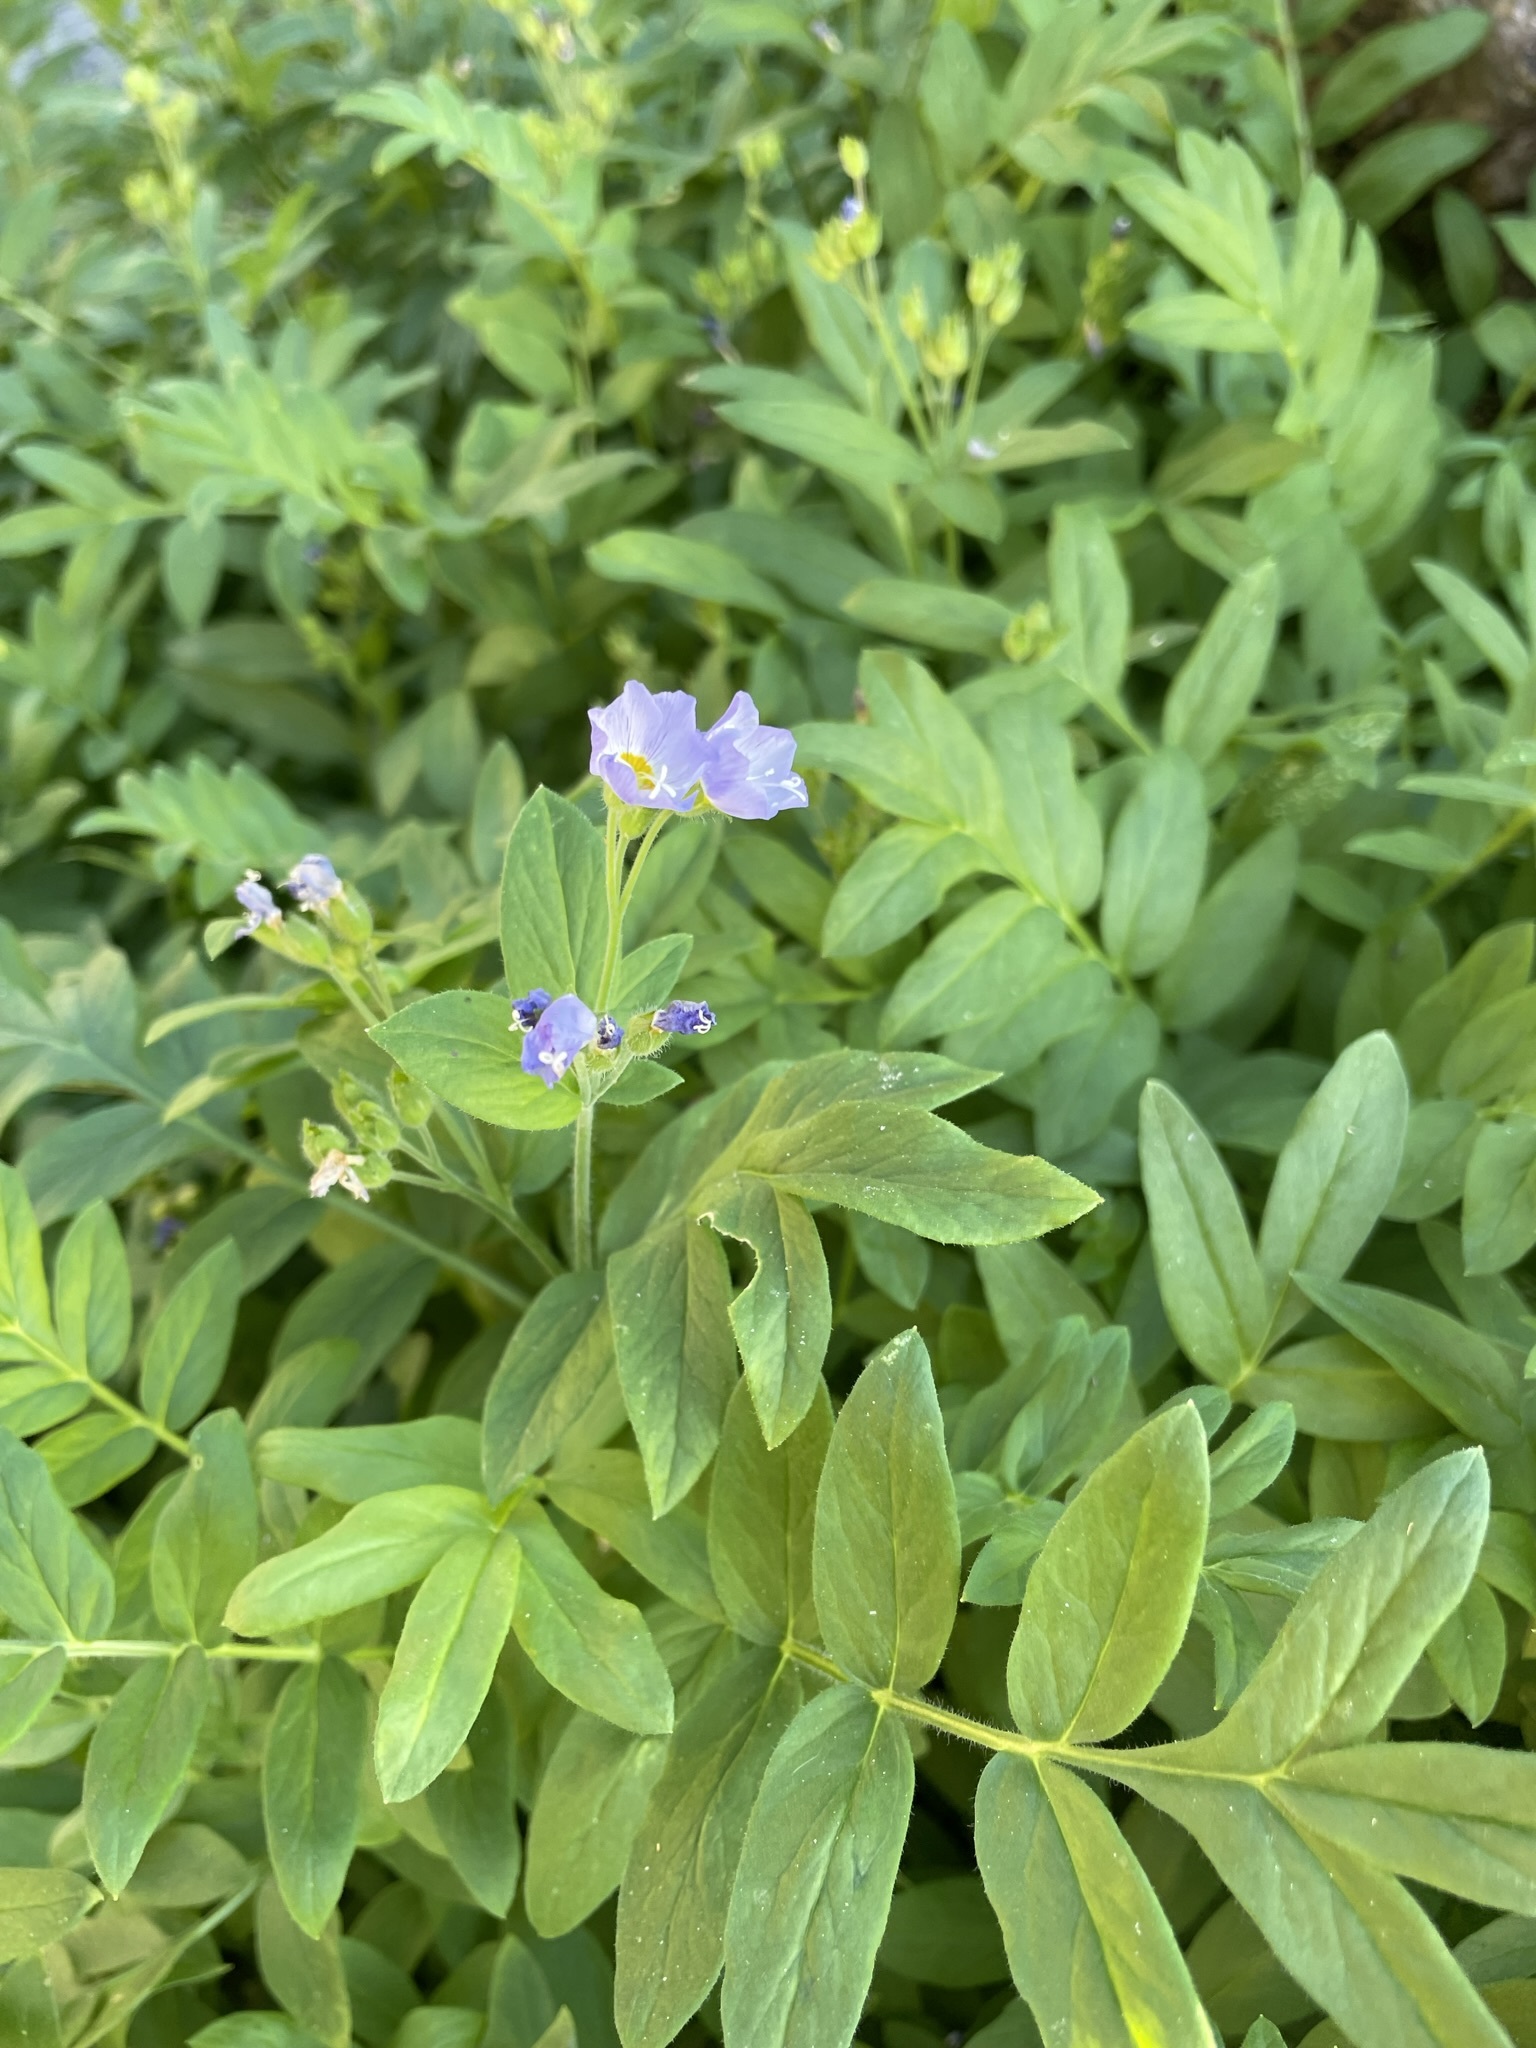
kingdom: Plantae
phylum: Tracheophyta
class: Magnoliopsida
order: Ericales
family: Polemoniaceae
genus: Polemonium
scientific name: Polemonium californicum
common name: California jacob's ladder
